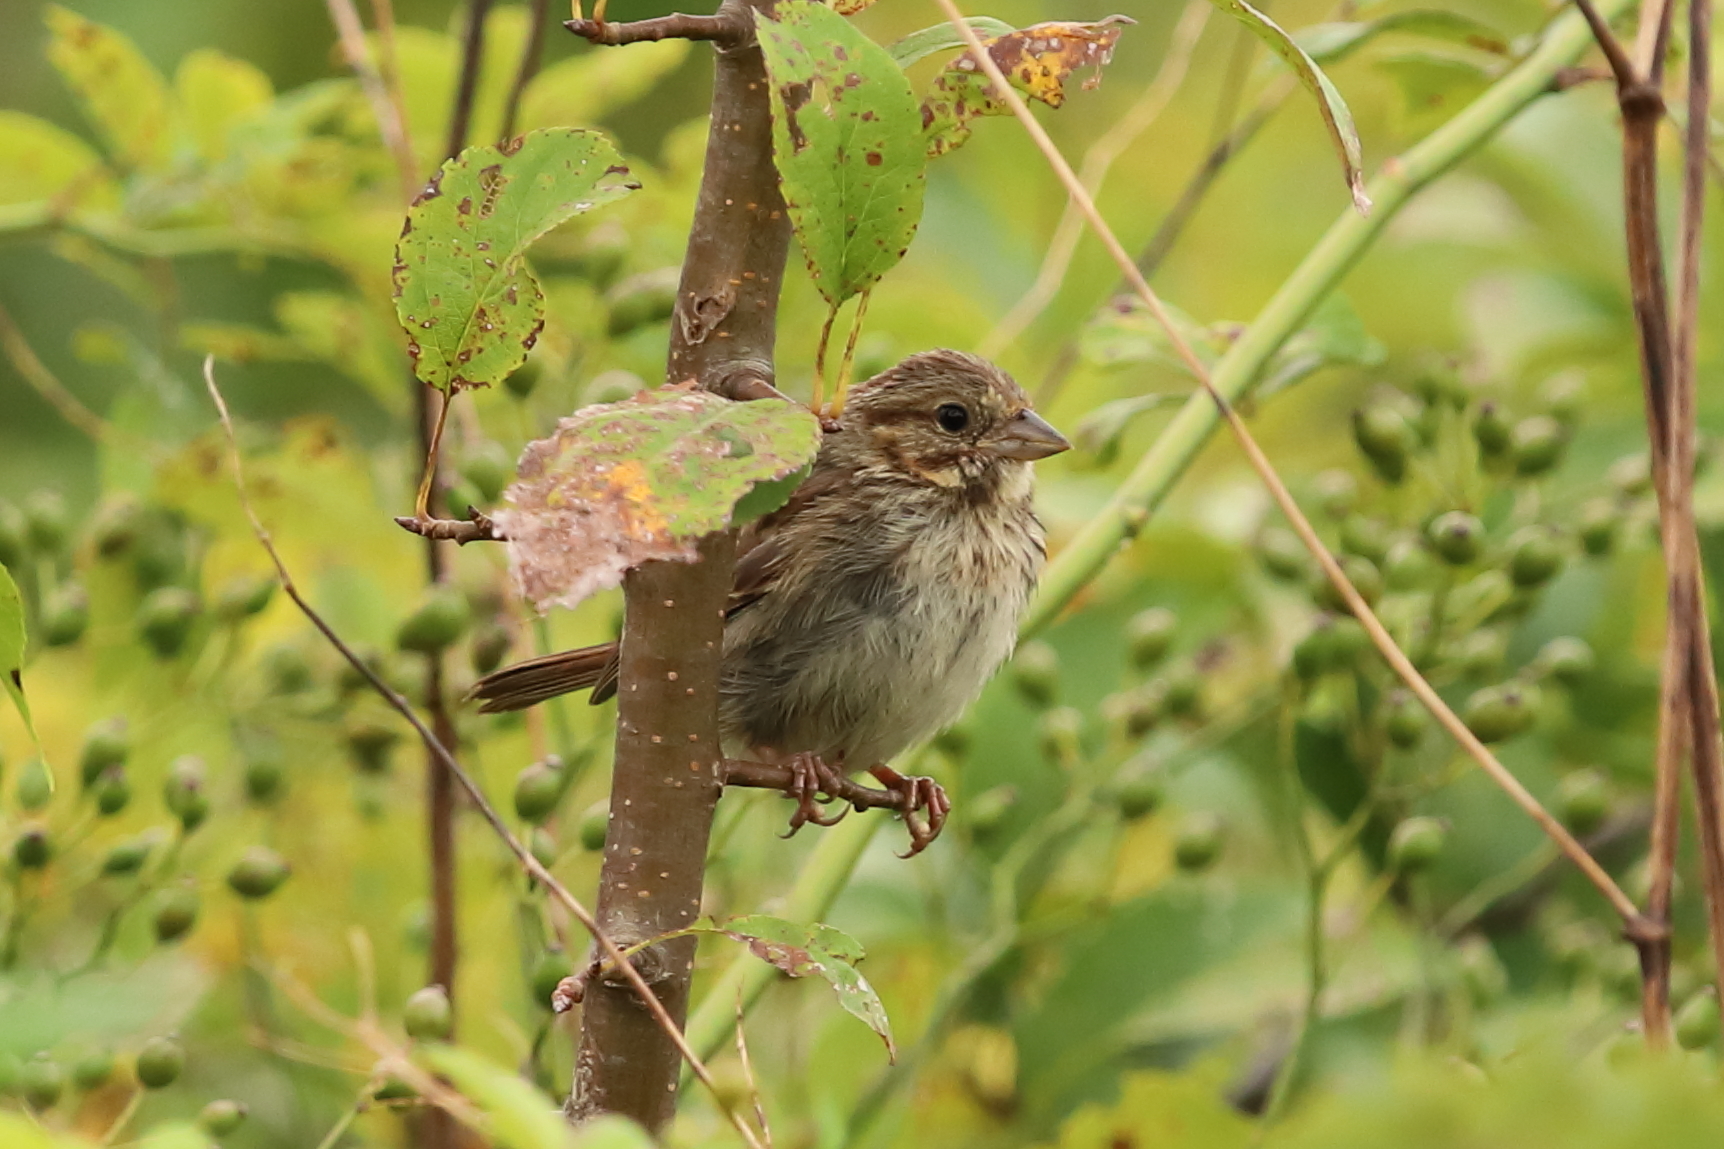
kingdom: Animalia
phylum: Chordata
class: Aves
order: Passeriformes
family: Passerellidae
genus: Melospiza
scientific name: Melospiza melodia
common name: Song sparrow
